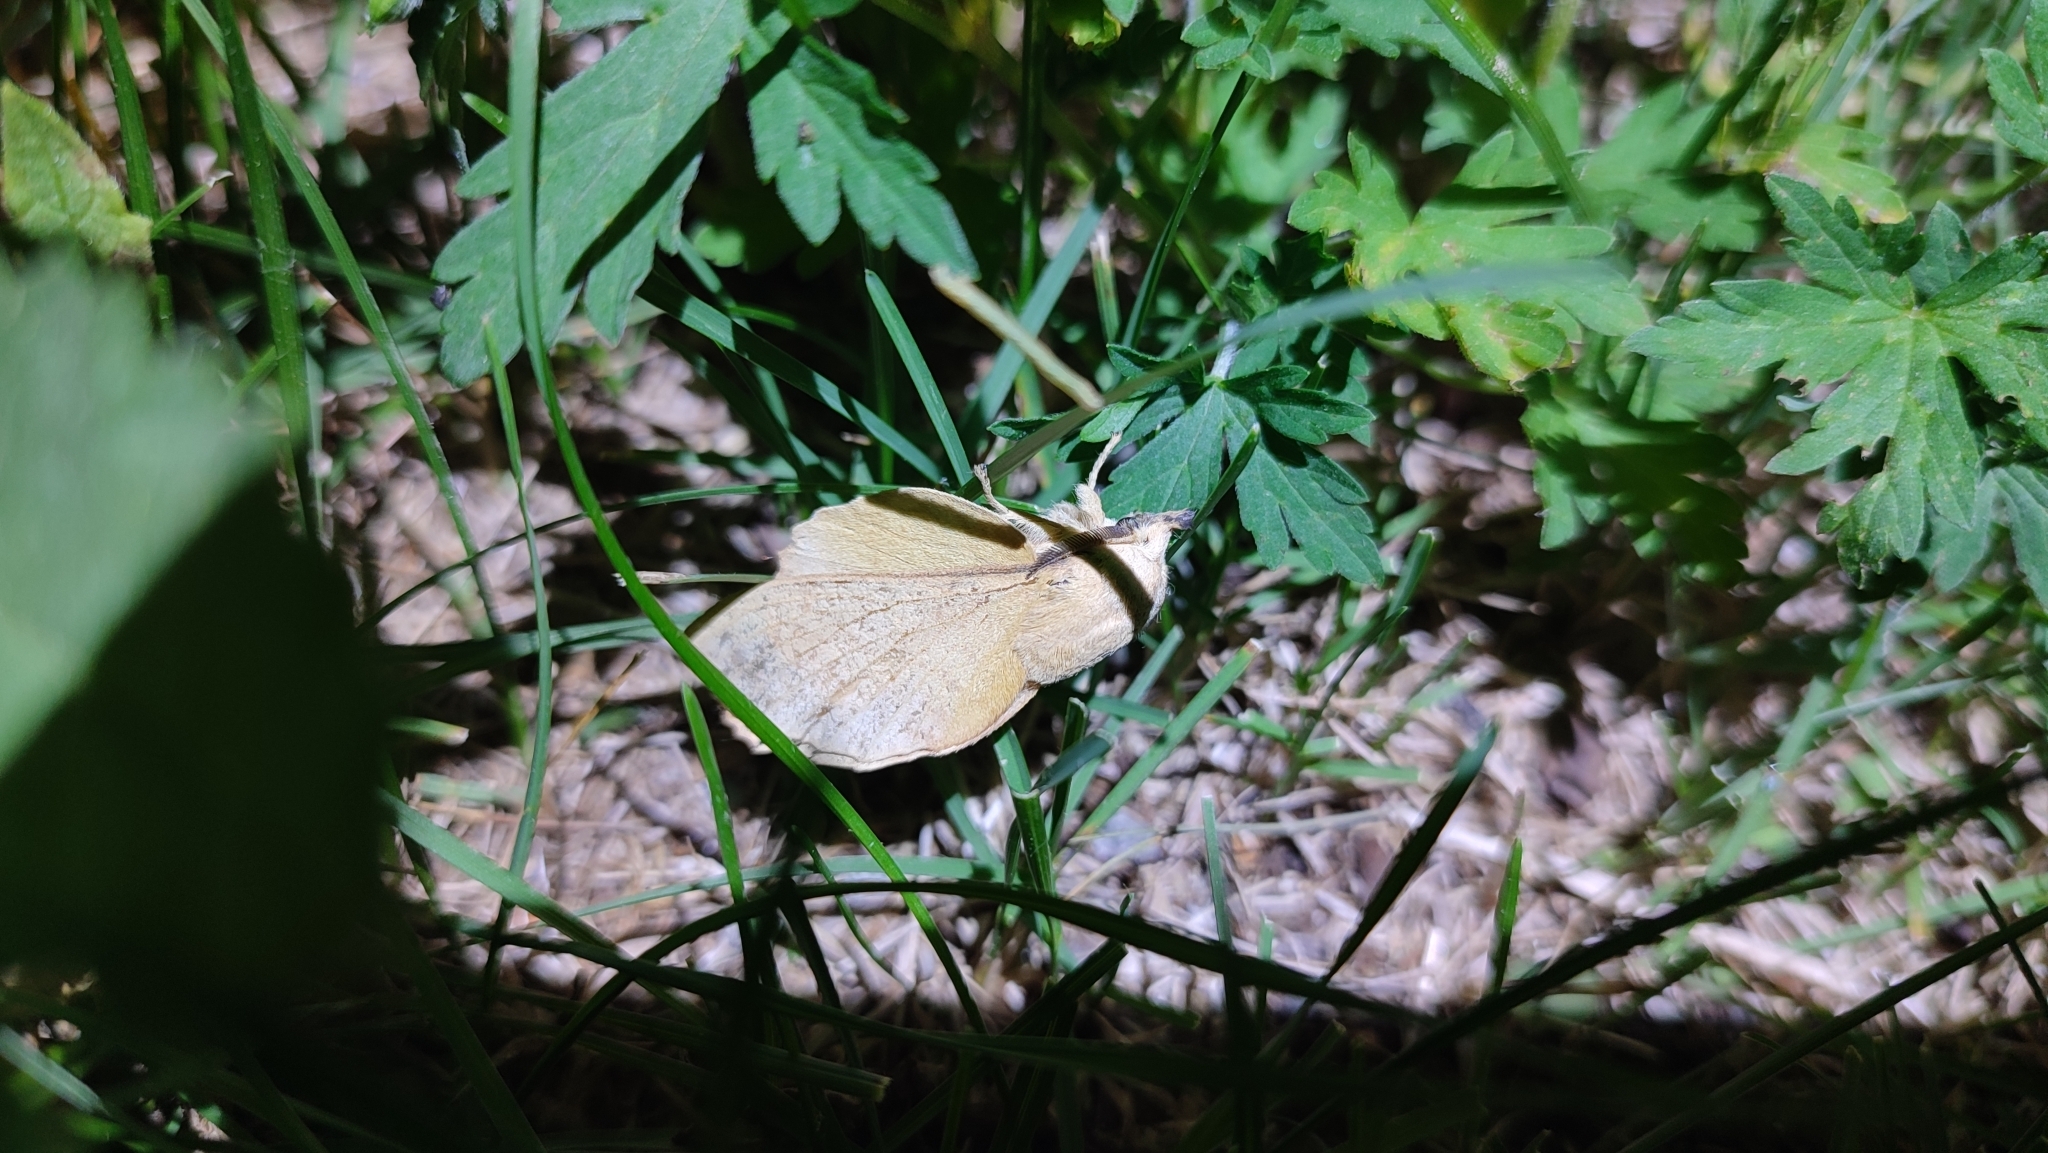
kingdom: Animalia
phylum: Arthropoda
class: Insecta
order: Lepidoptera
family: Lasiocampidae
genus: Gastropacha
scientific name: Gastropacha populifolia
